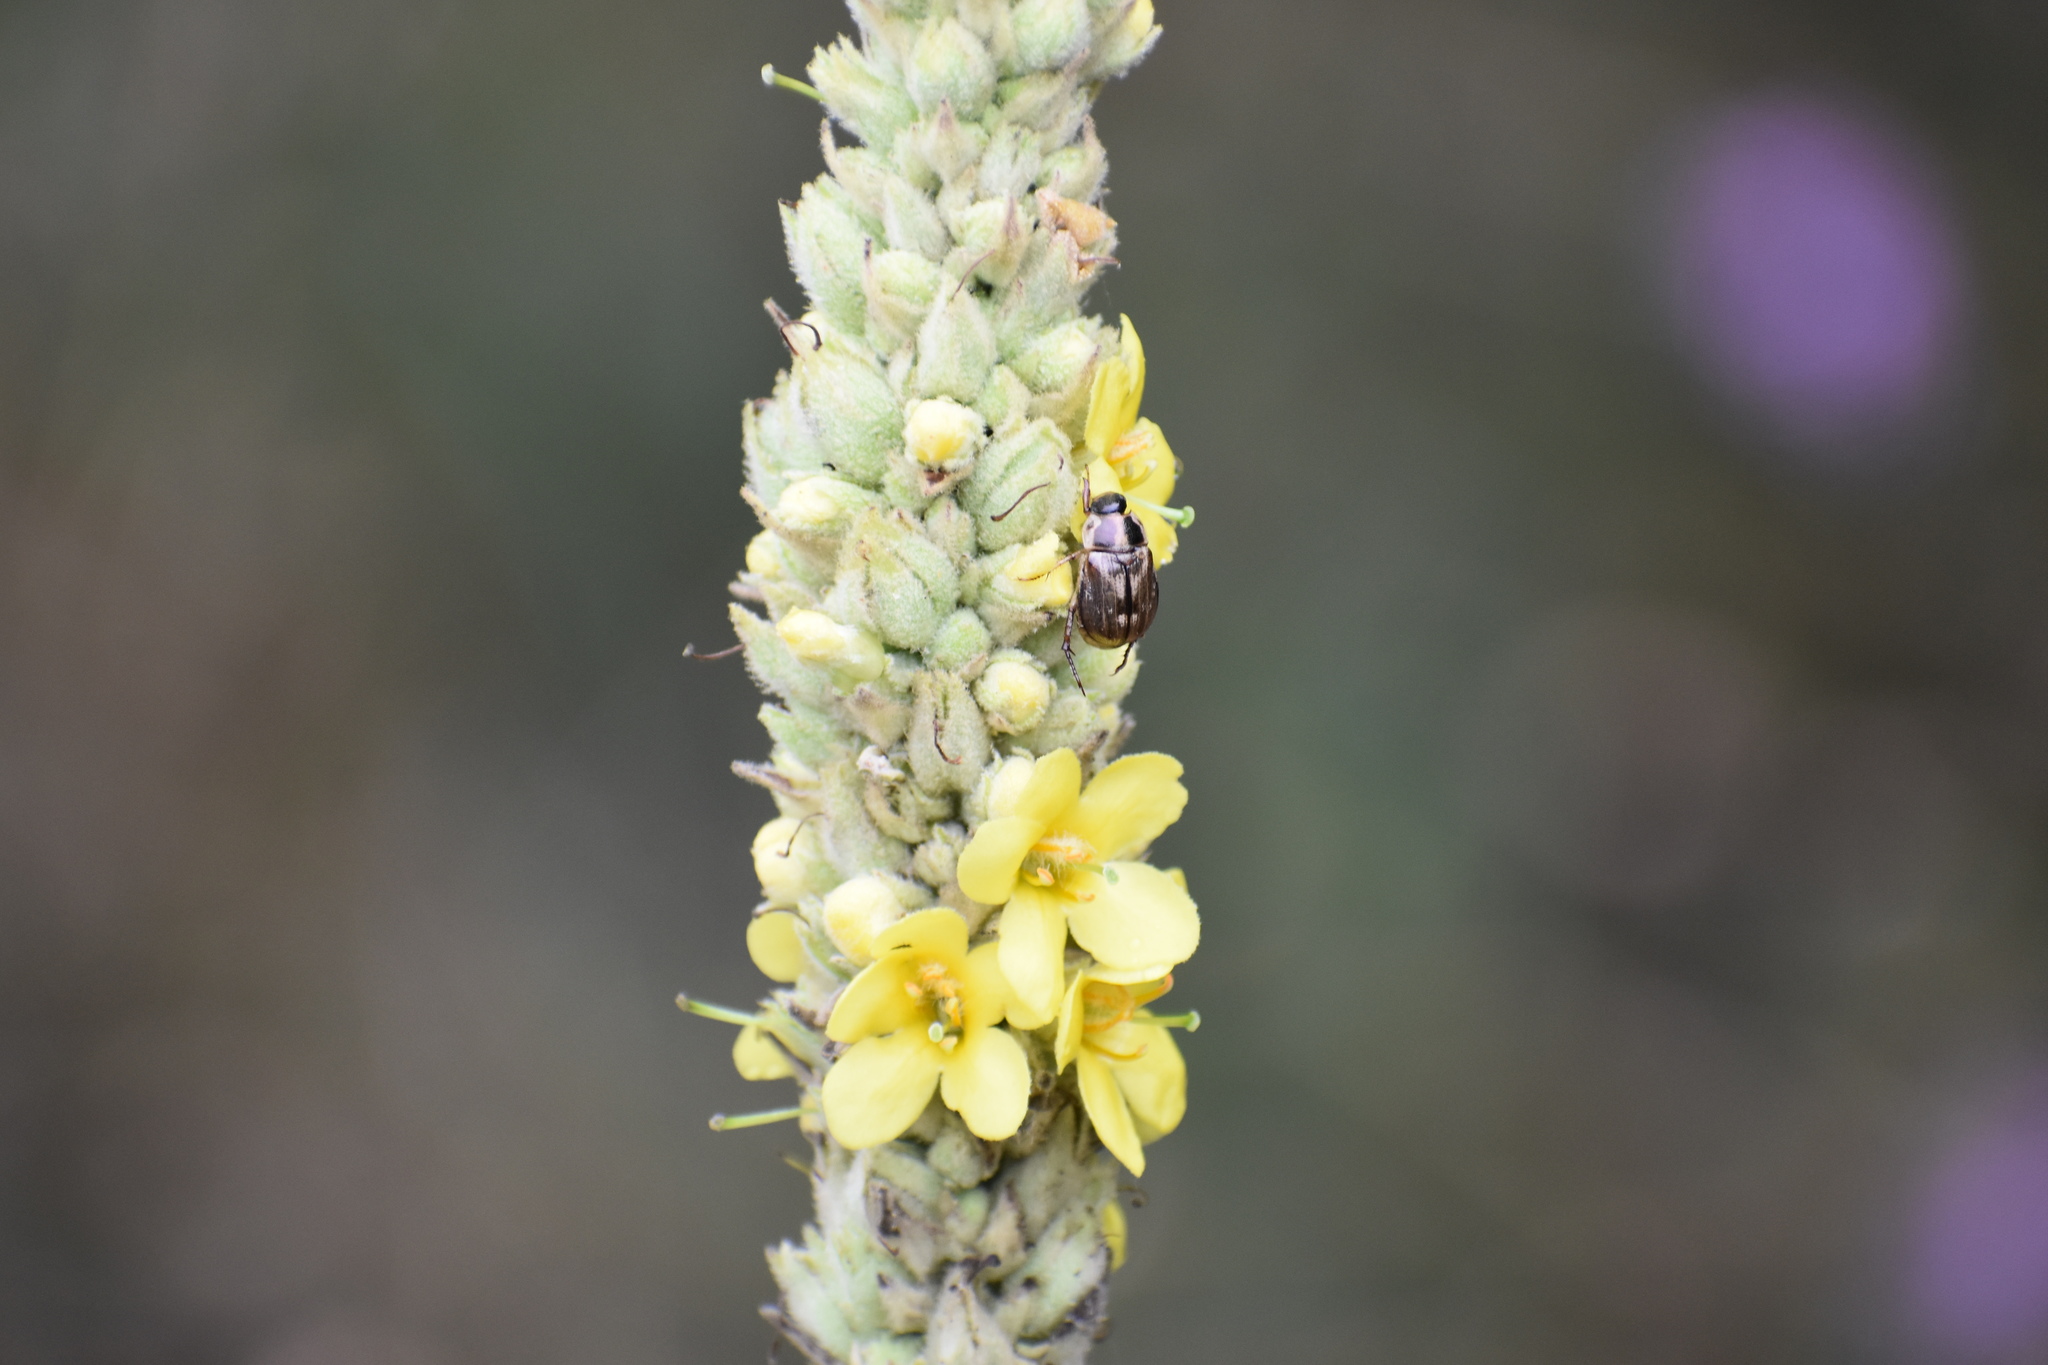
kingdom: Animalia
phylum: Arthropoda
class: Insecta
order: Coleoptera
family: Scarabaeidae
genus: Exomala
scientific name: Exomala orientalis
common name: Oriental beetle
